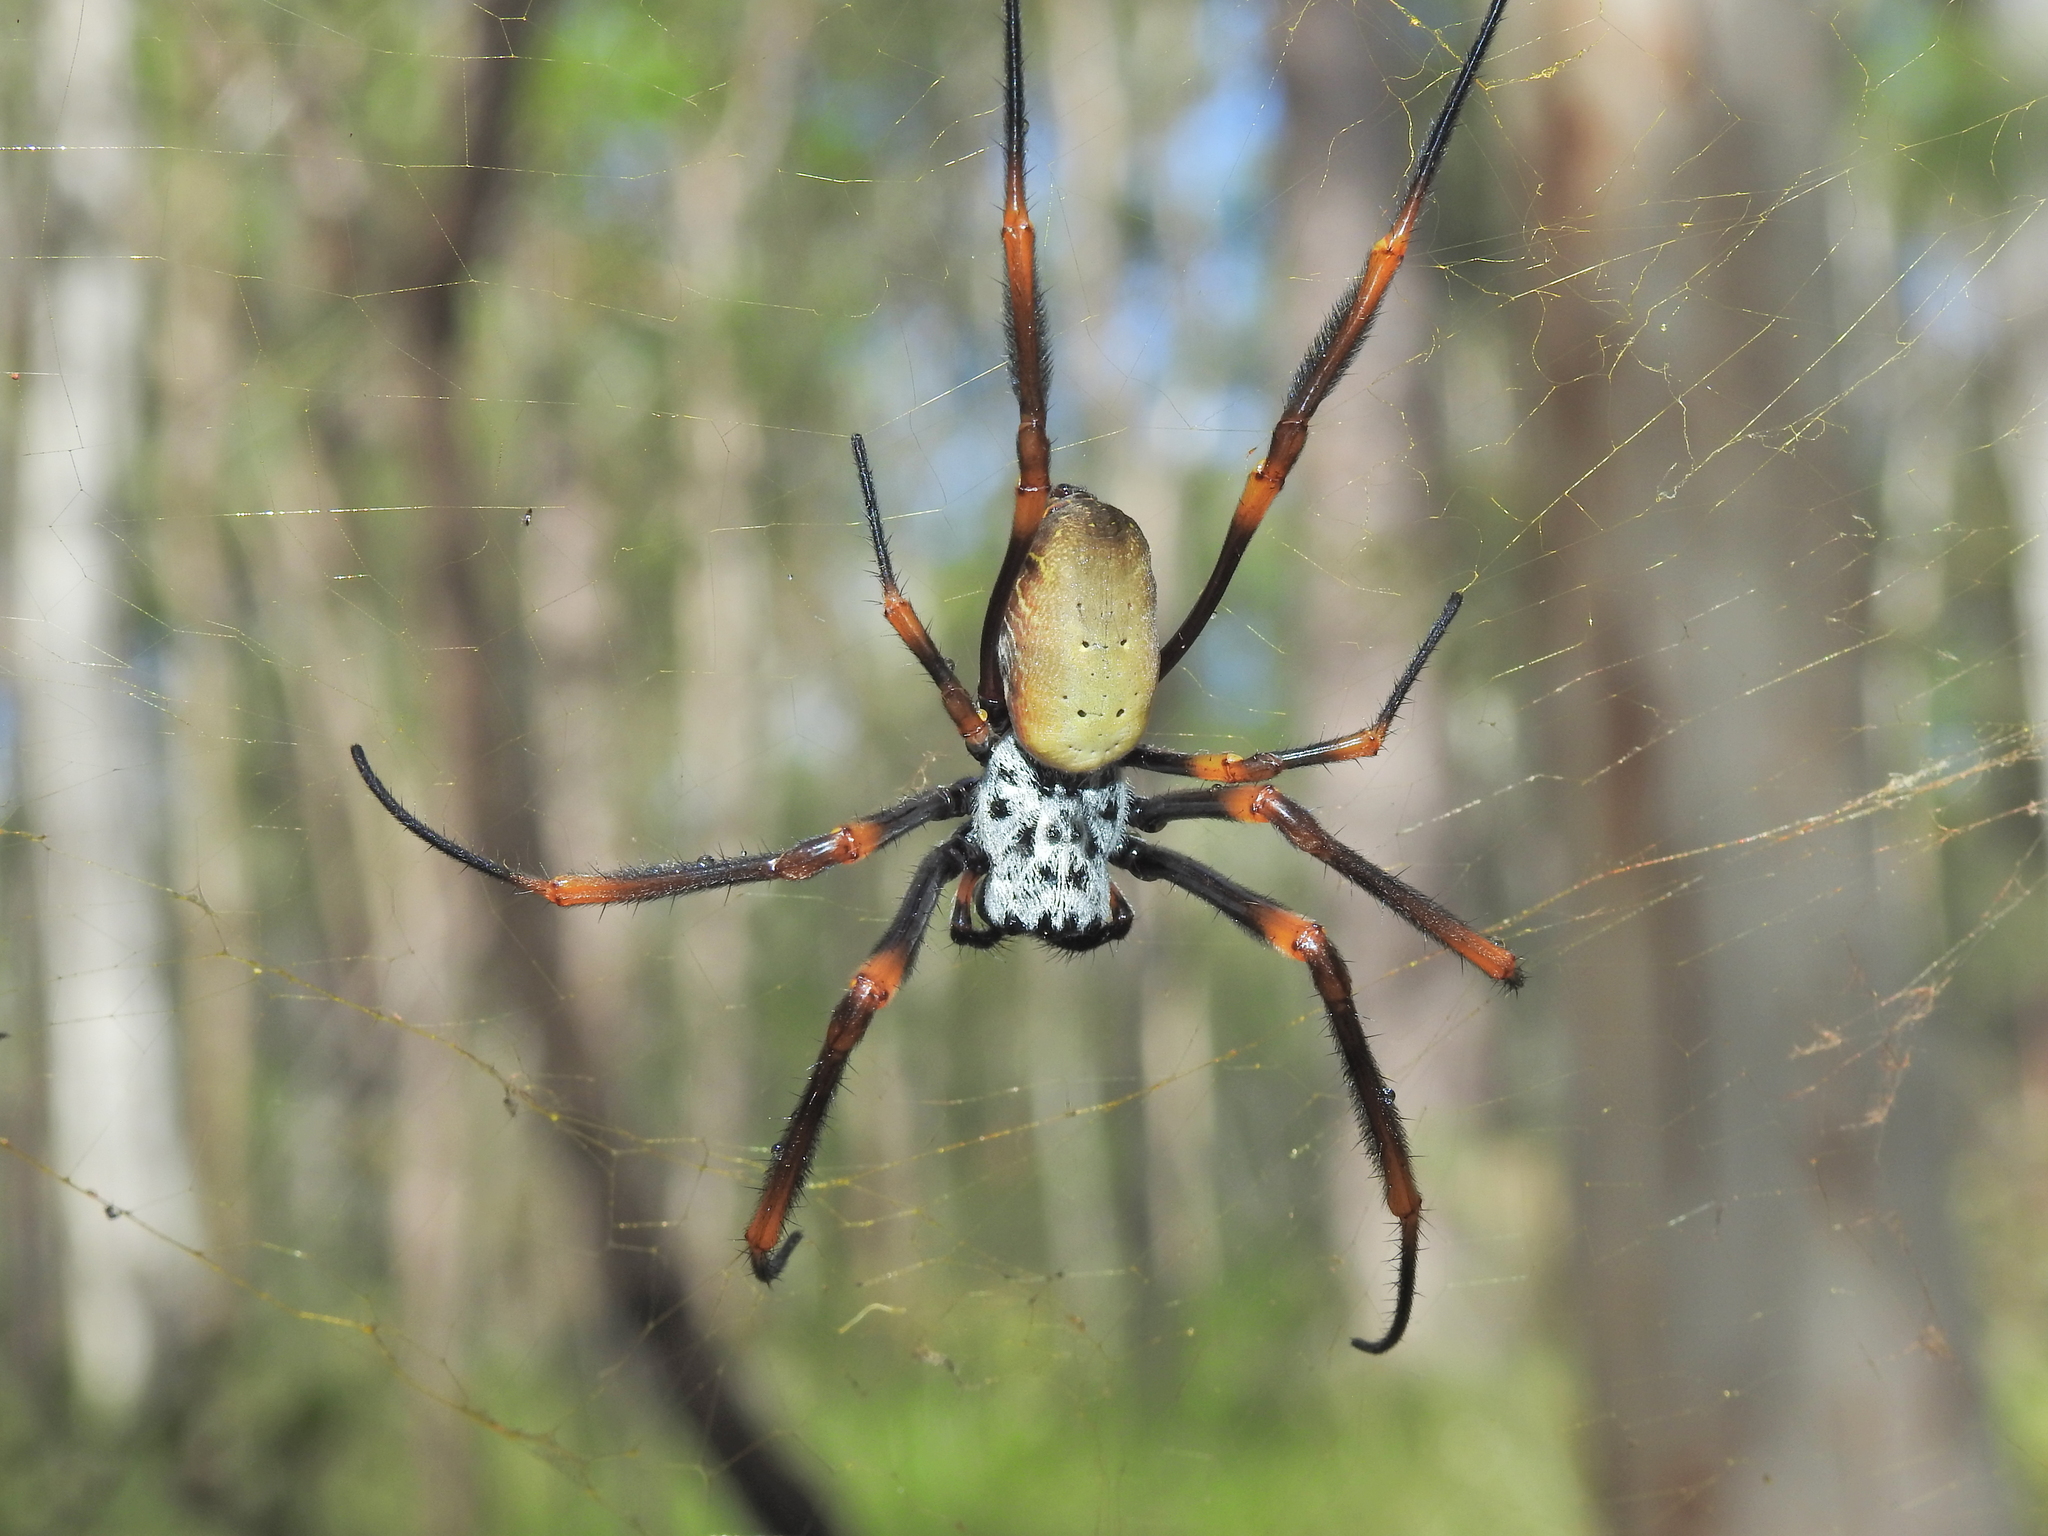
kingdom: Animalia
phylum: Arthropoda
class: Arachnida
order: Araneae
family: Araneidae
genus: Trichonephila
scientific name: Trichonephila plumipes
